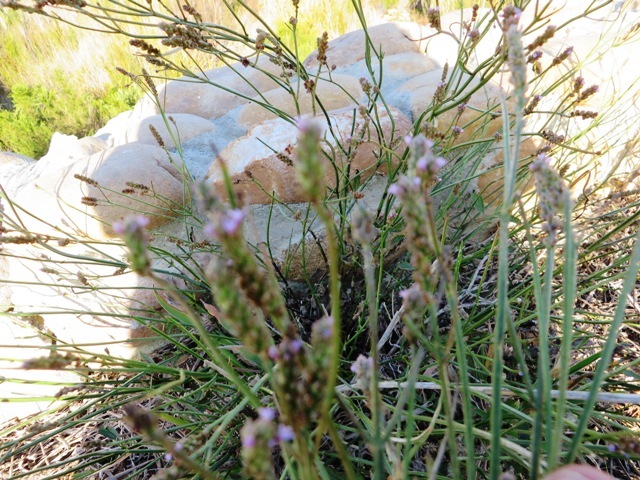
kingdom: Plantae
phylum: Tracheophyta
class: Magnoliopsida
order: Lamiales
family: Verbenaceae
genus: Verbena
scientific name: Verbena officinalis
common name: Vervain
